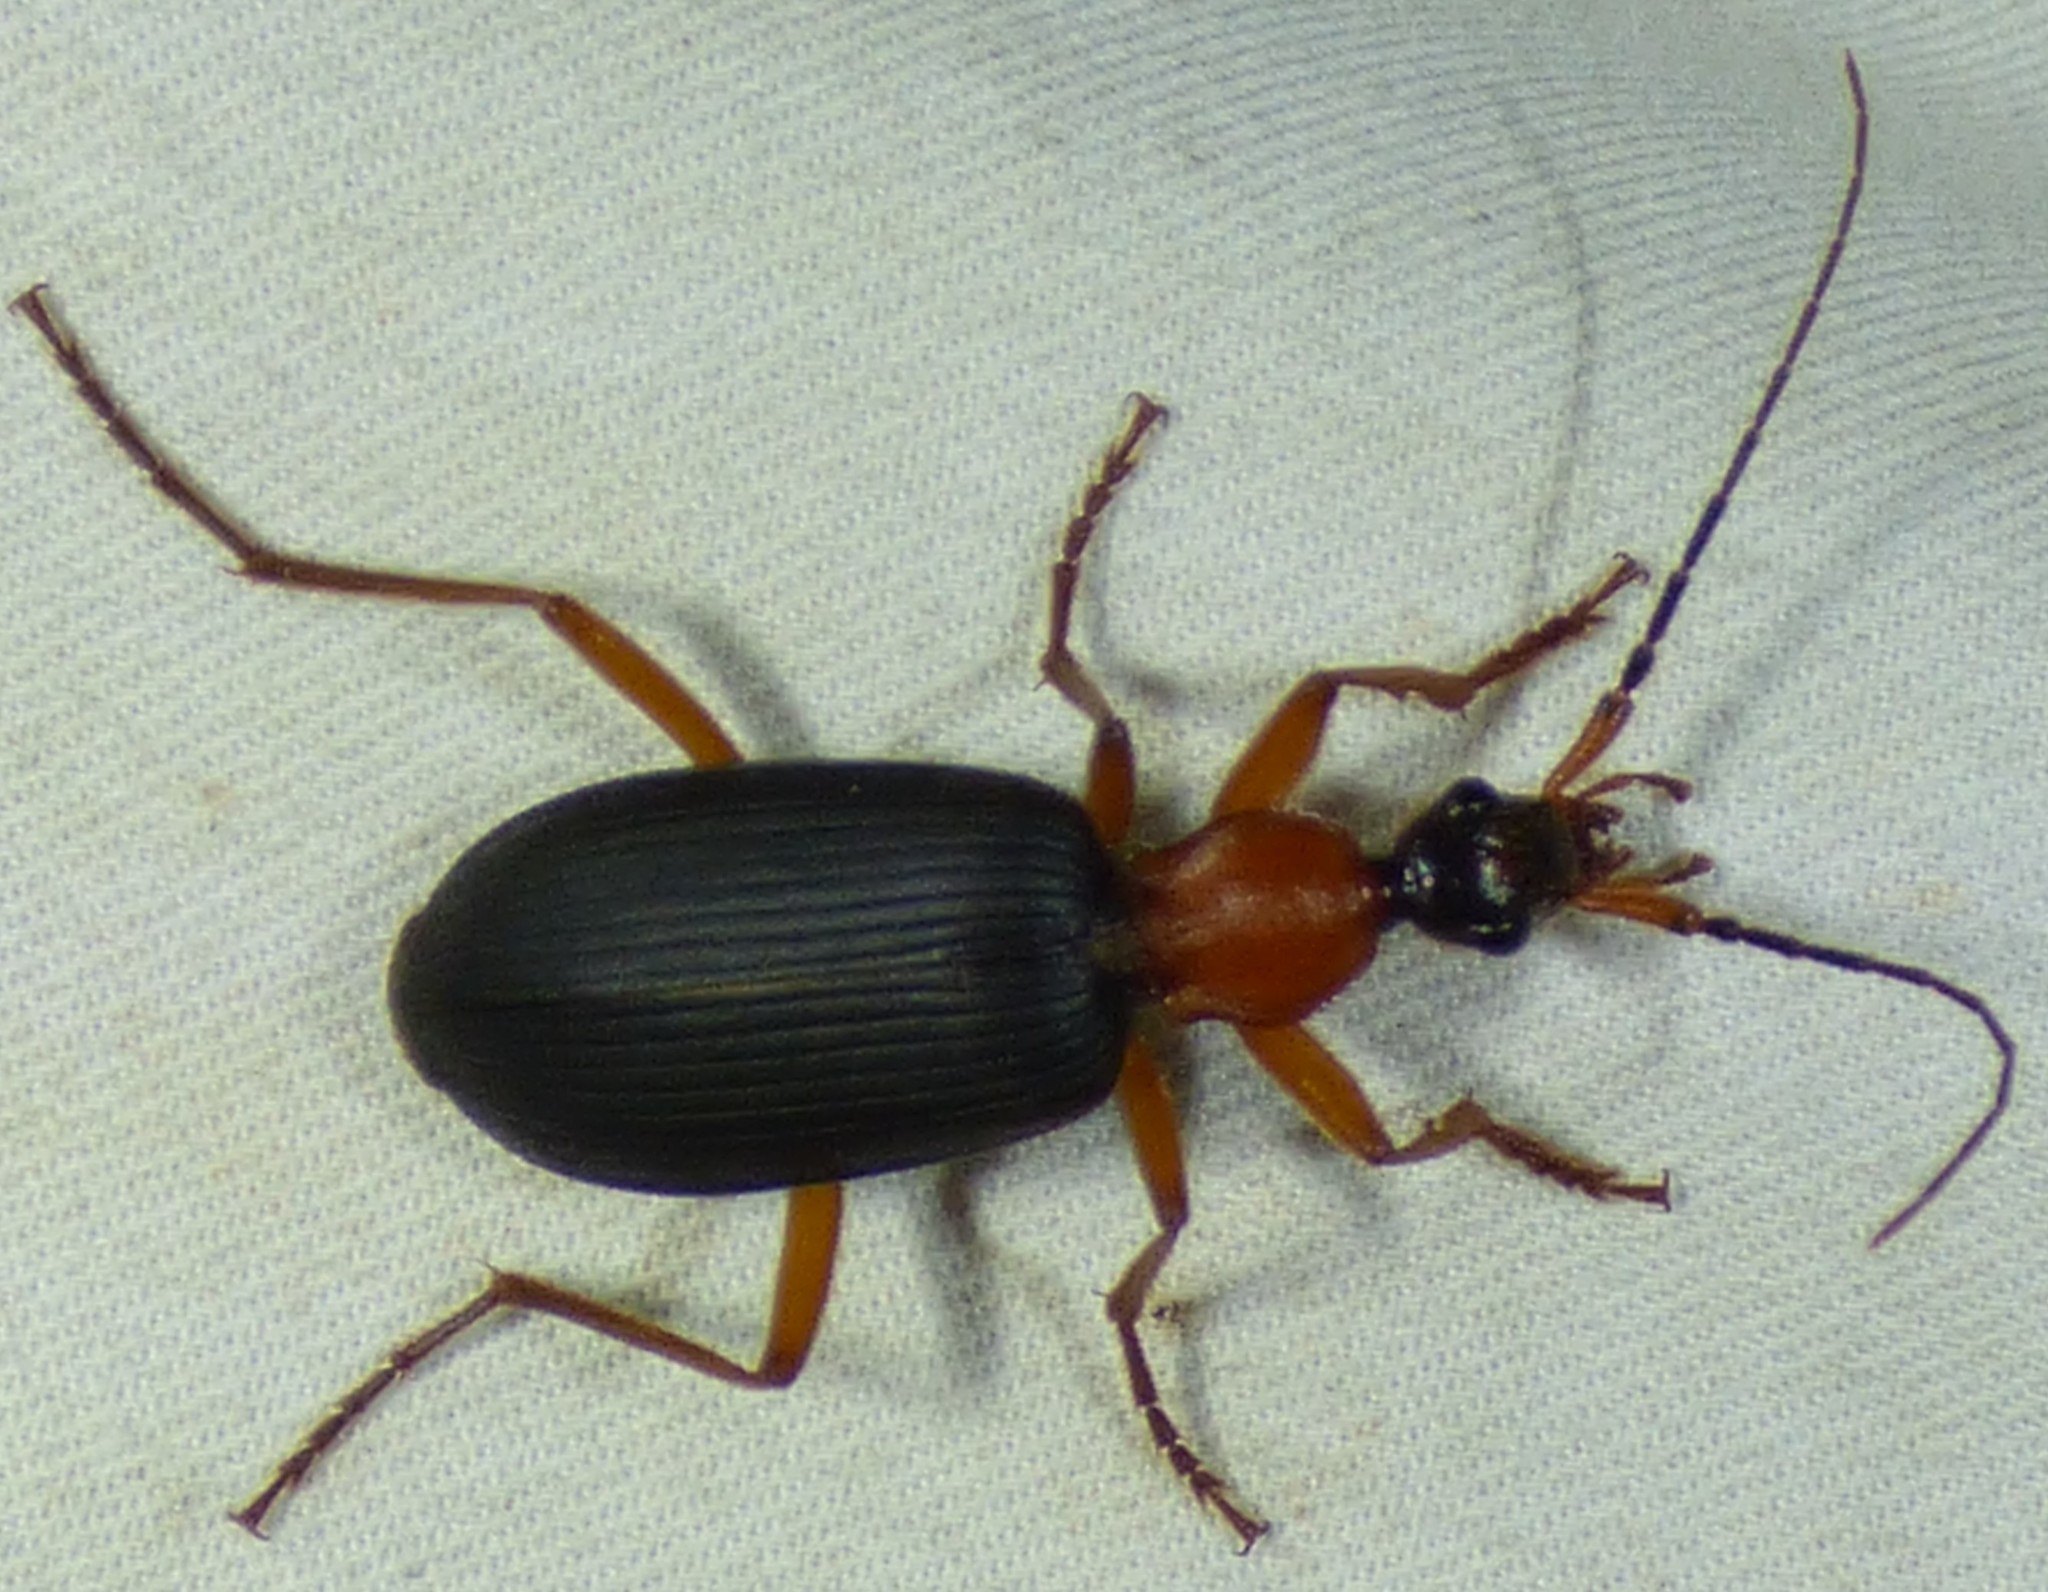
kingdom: Animalia
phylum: Arthropoda
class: Insecta
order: Coleoptera
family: Carabidae
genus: Galerita
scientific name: Galerita bicolor
